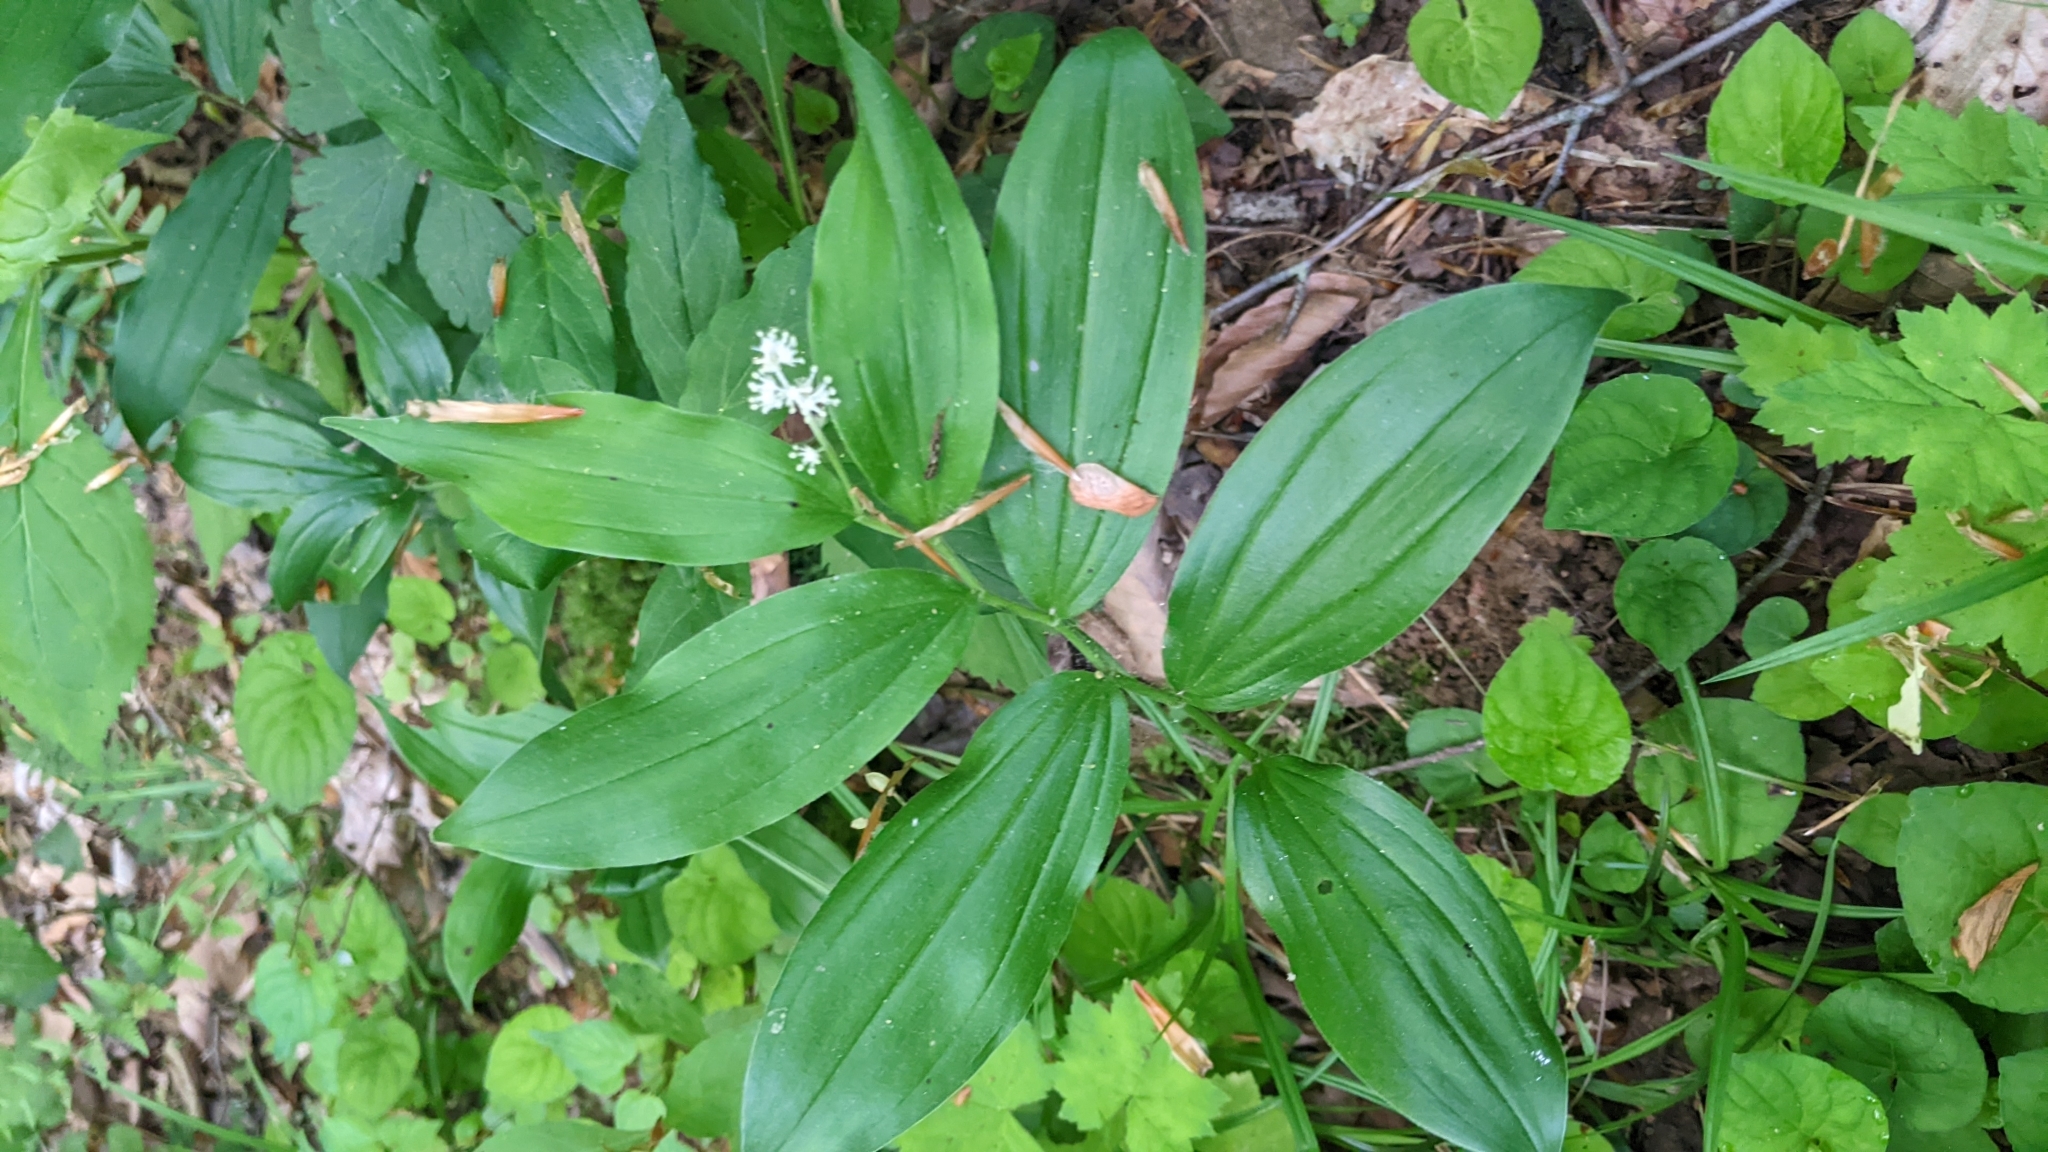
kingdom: Plantae
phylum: Tracheophyta
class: Liliopsida
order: Asparagales
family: Asparagaceae
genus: Maianthemum
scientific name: Maianthemum racemosum
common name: False spikenard
